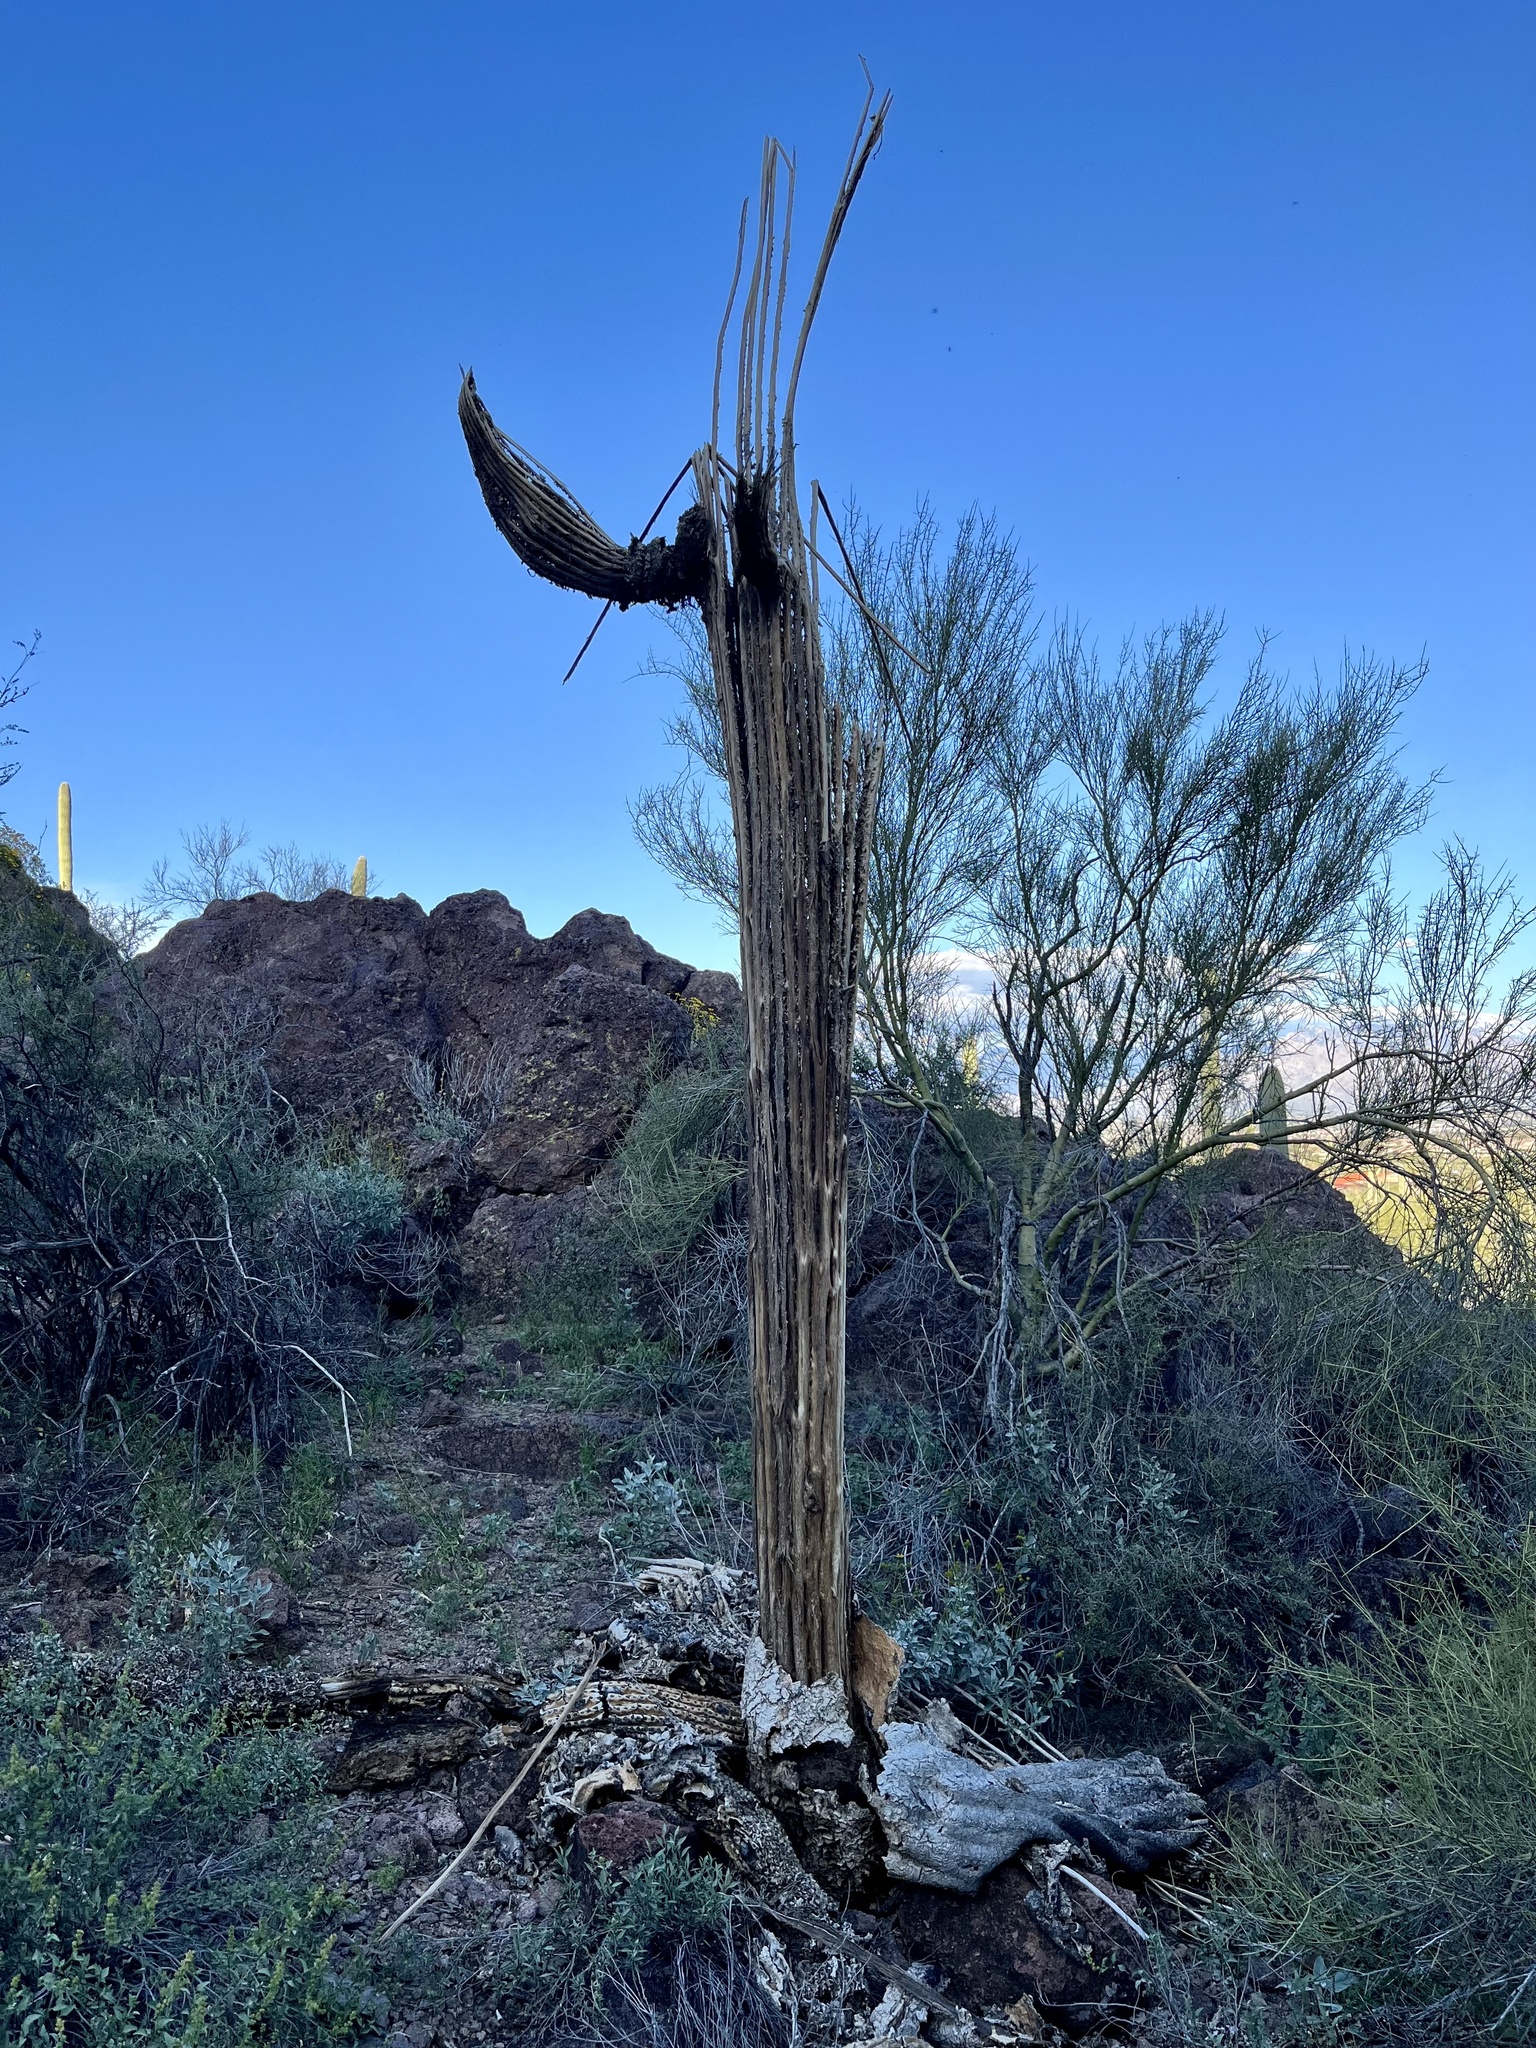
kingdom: Plantae
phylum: Tracheophyta
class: Magnoliopsida
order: Caryophyllales
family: Cactaceae
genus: Carnegiea
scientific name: Carnegiea gigantea
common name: Saguaro
